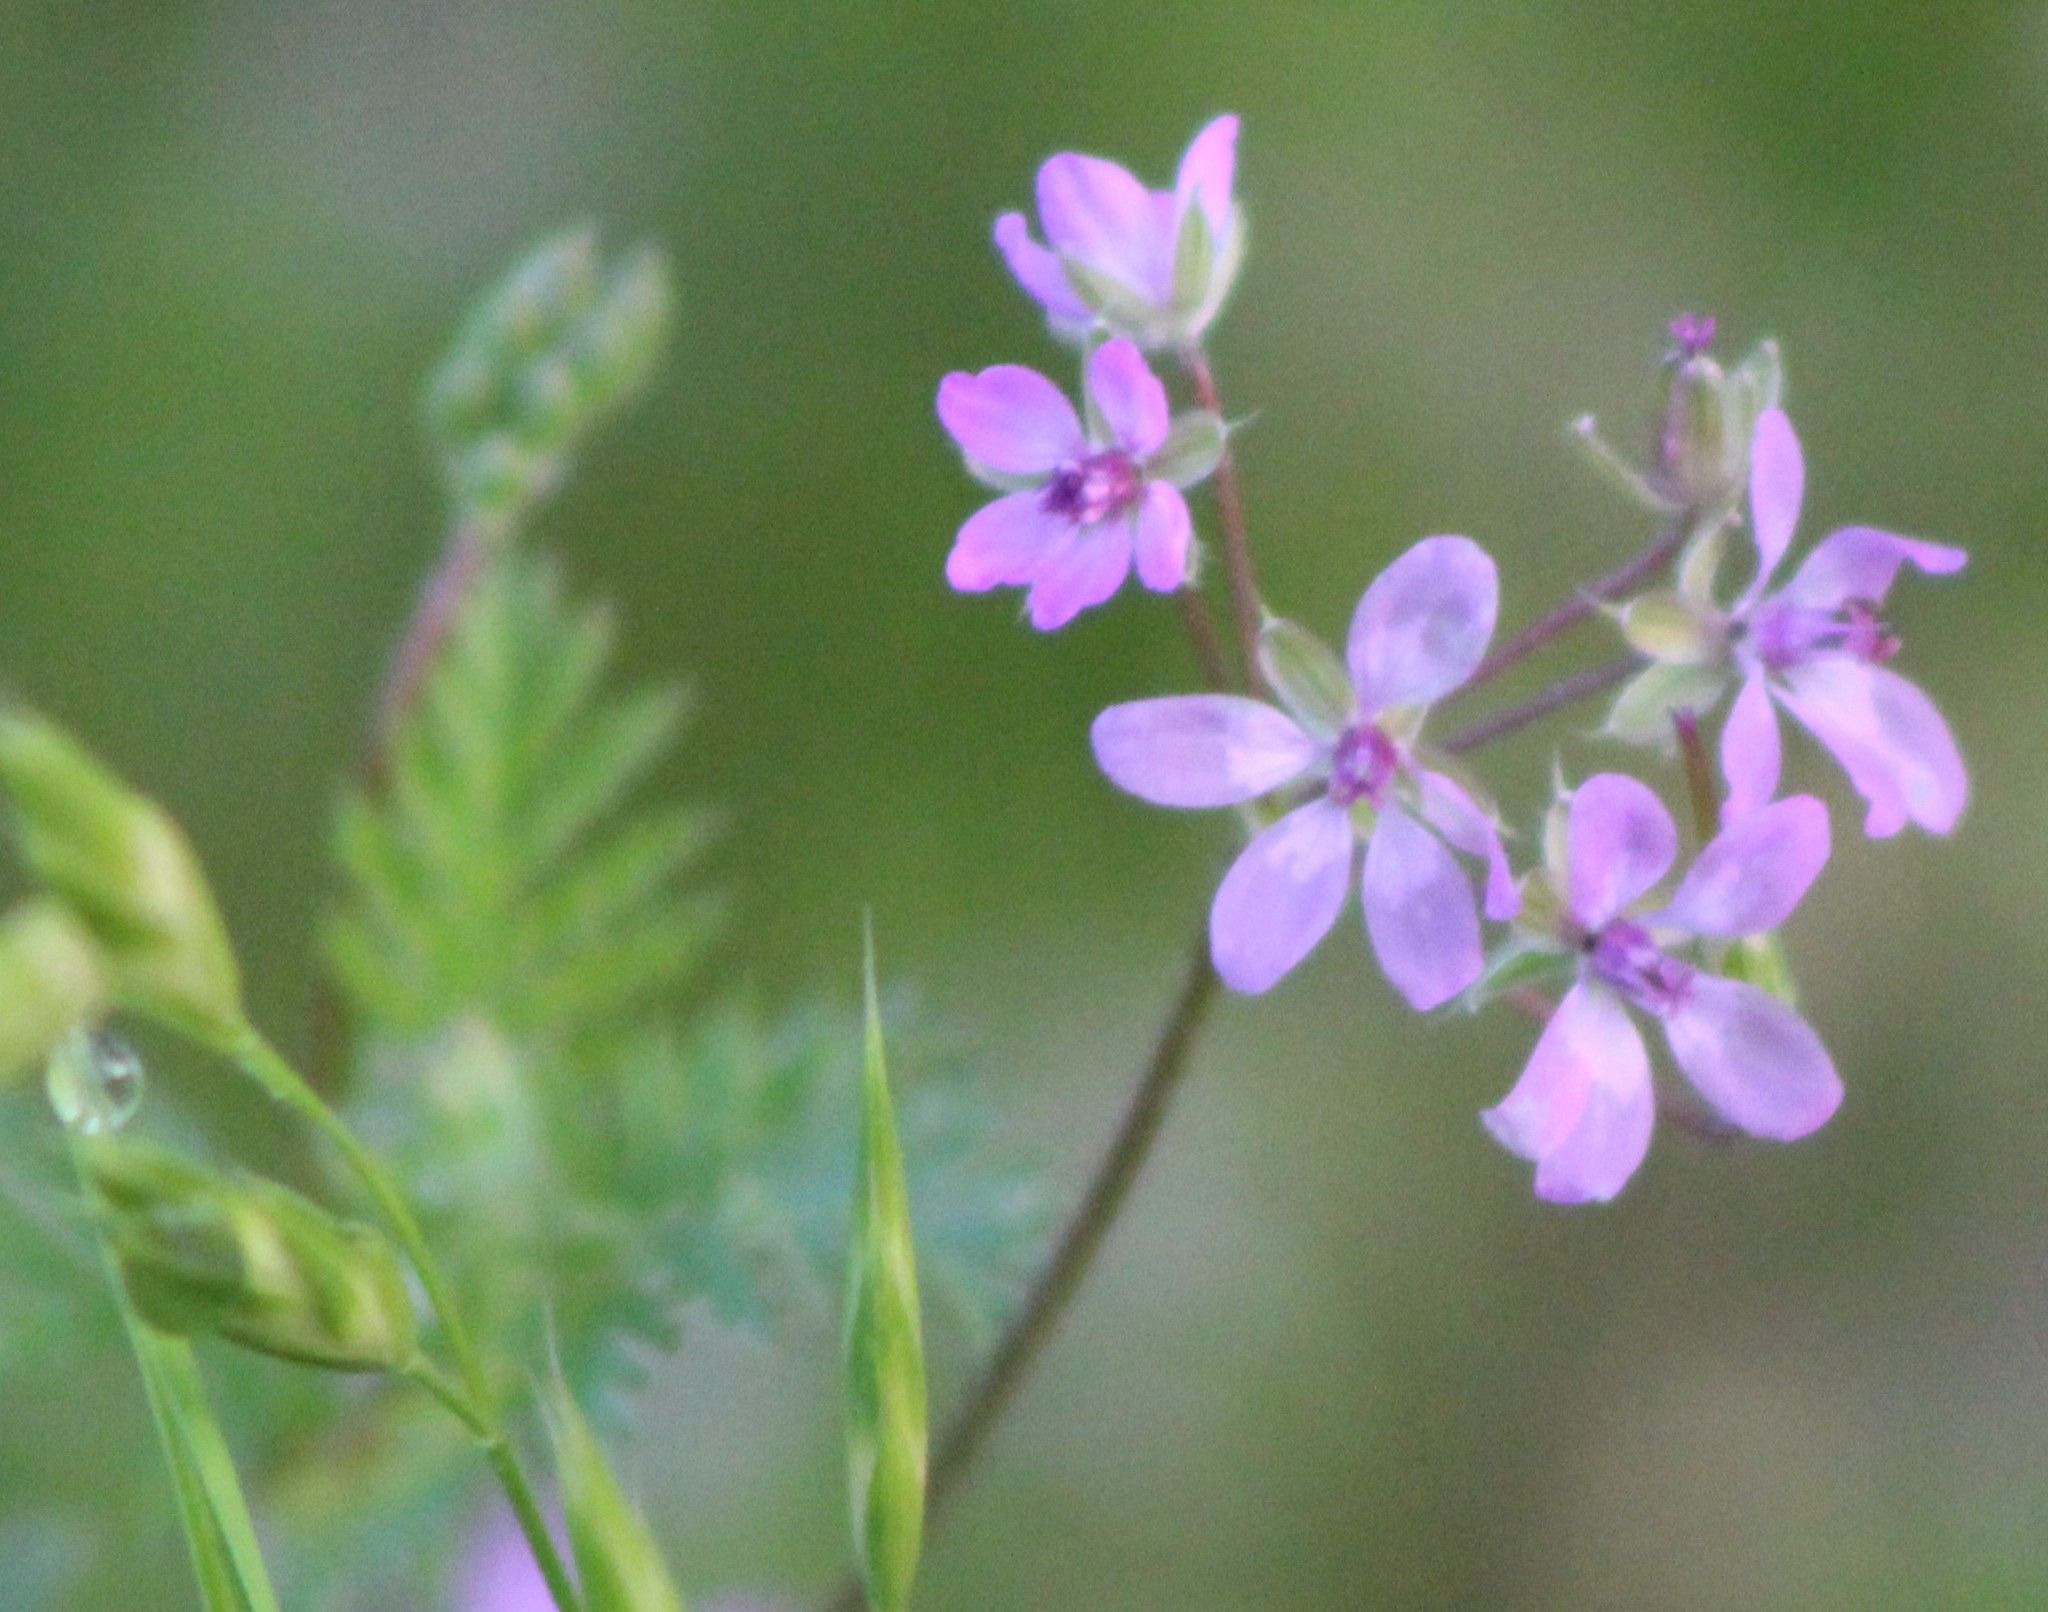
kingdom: Plantae
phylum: Tracheophyta
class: Magnoliopsida
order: Geraniales
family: Geraniaceae
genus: Erodium
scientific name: Erodium cicutarium
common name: Common stork's-bill
